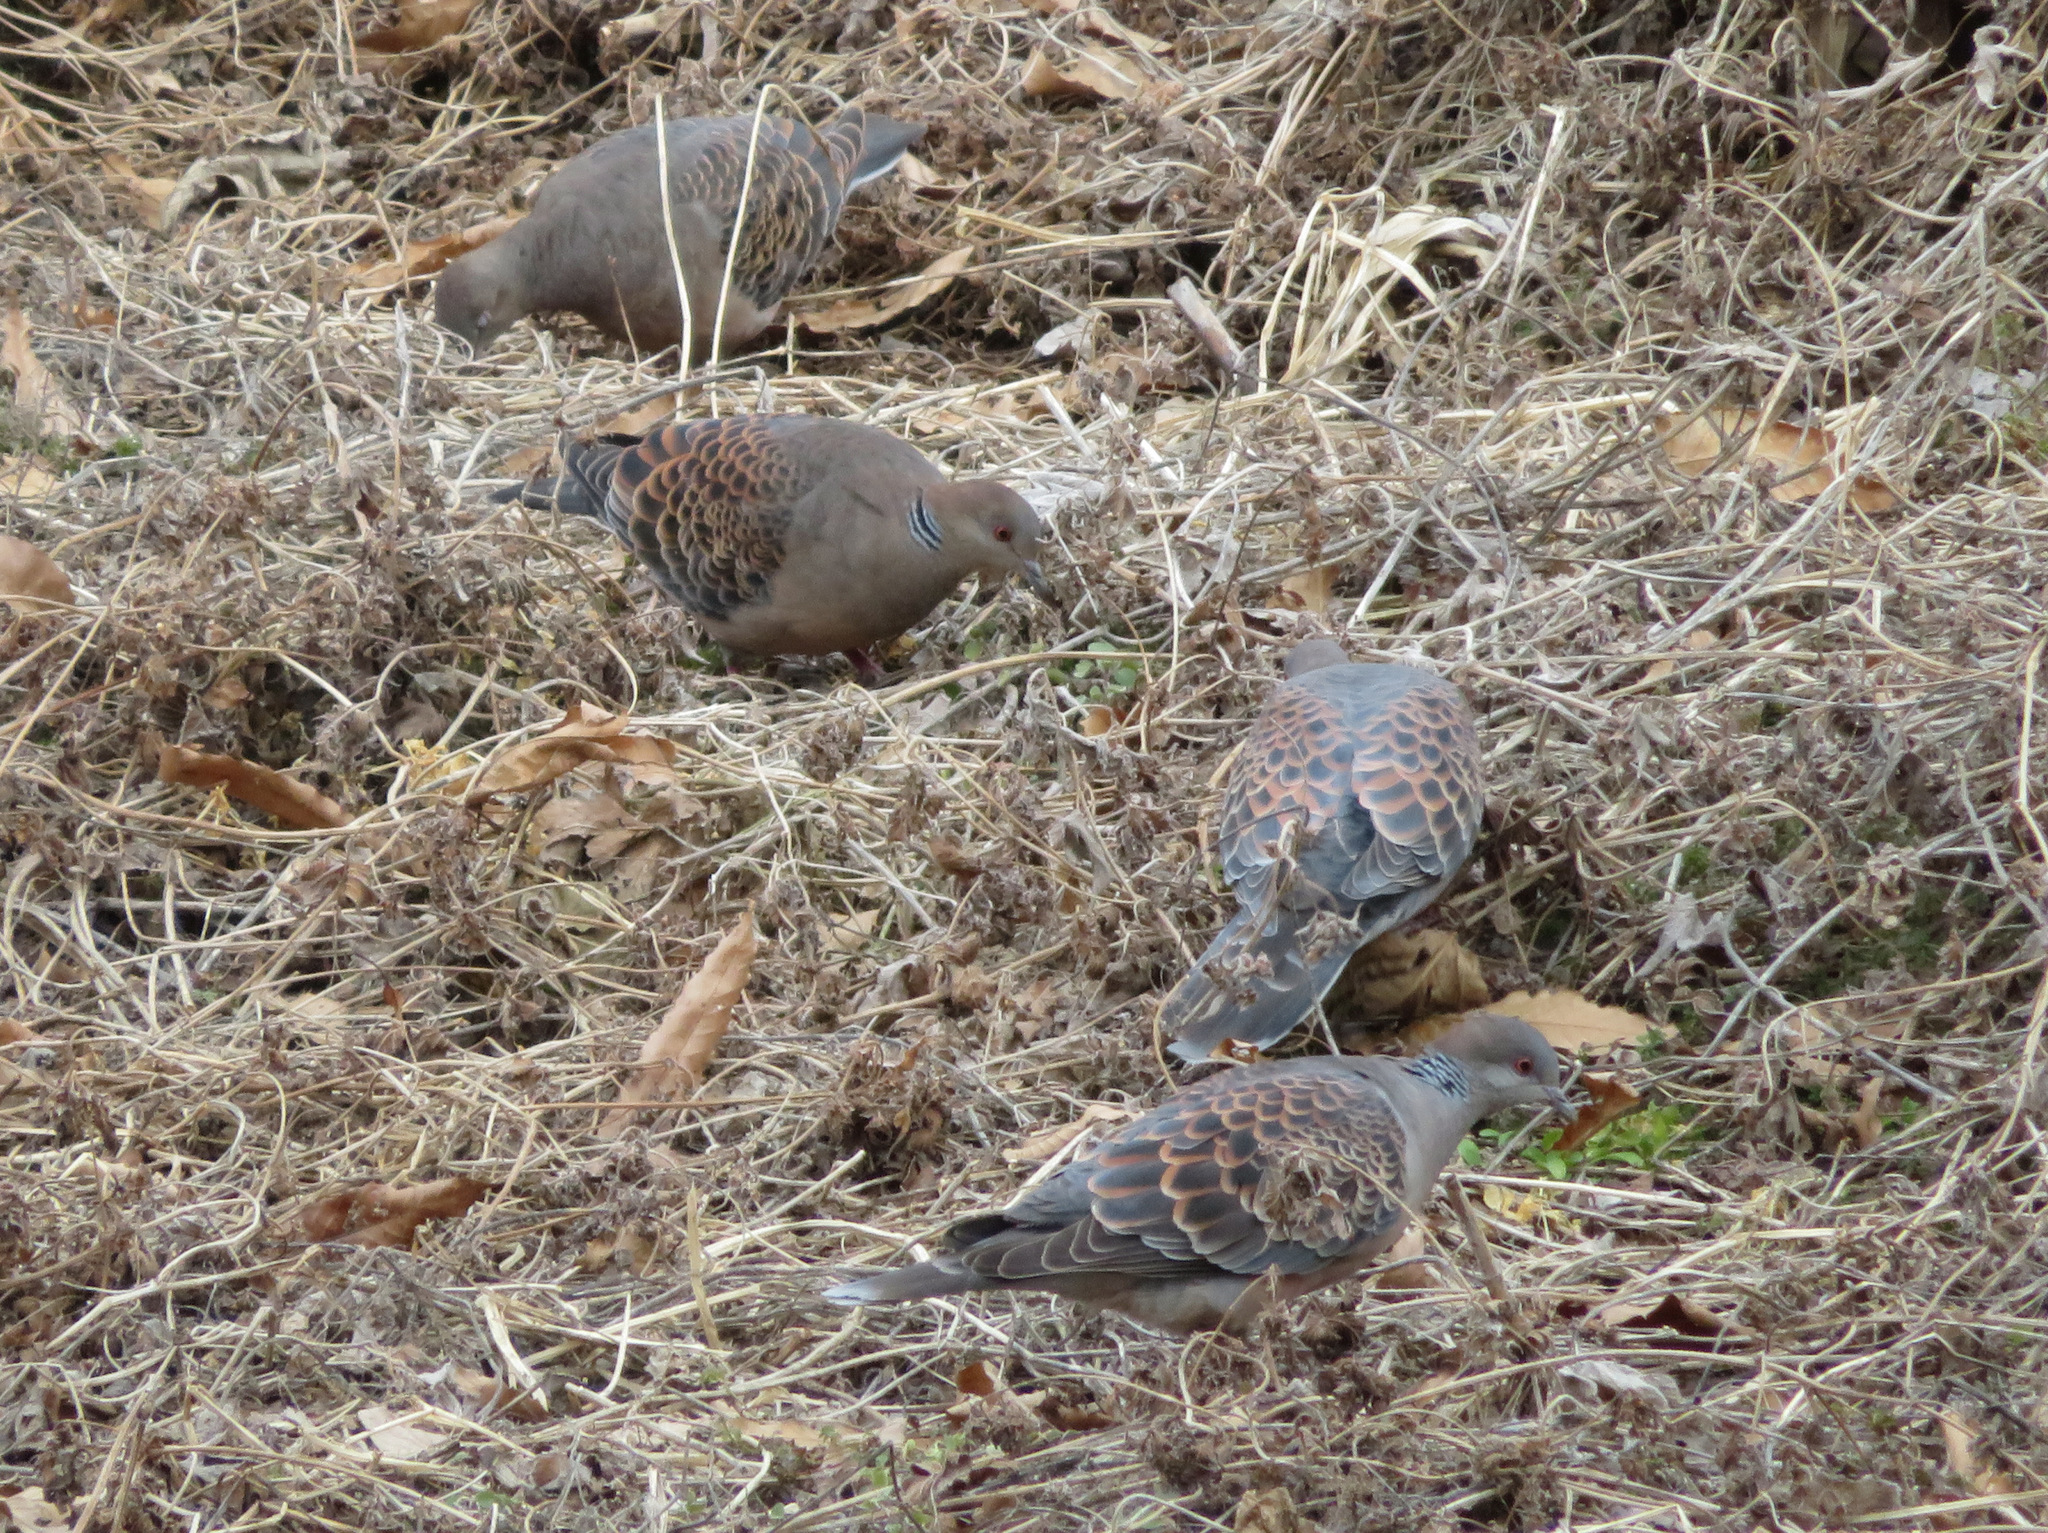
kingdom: Animalia
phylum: Chordata
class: Aves
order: Columbiformes
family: Columbidae
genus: Streptopelia
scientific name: Streptopelia orientalis
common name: Oriental turtle dove
